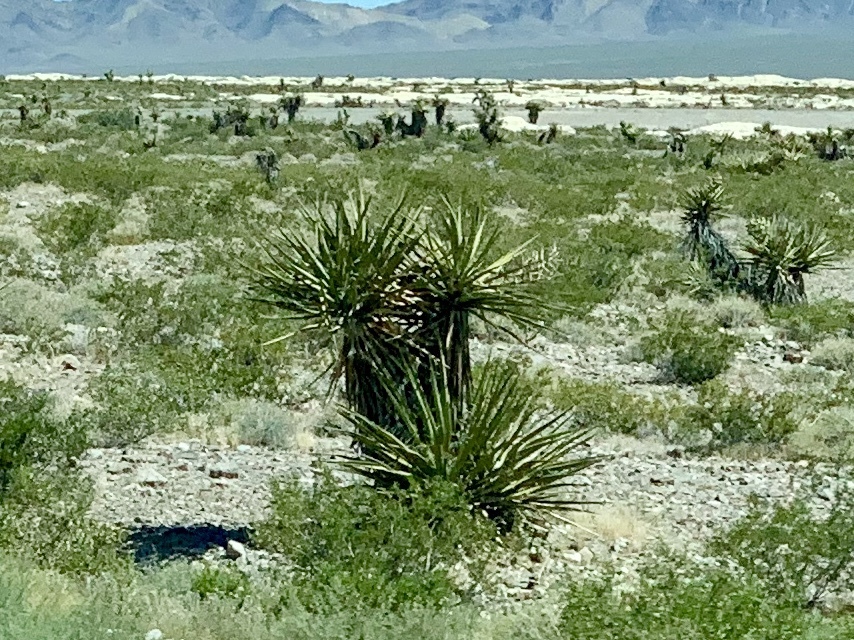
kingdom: Plantae
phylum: Tracheophyta
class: Liliopsida
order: Asparagales
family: Asparagaceae
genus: Yucca
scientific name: Yucca schidigera
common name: Mojave yucca
